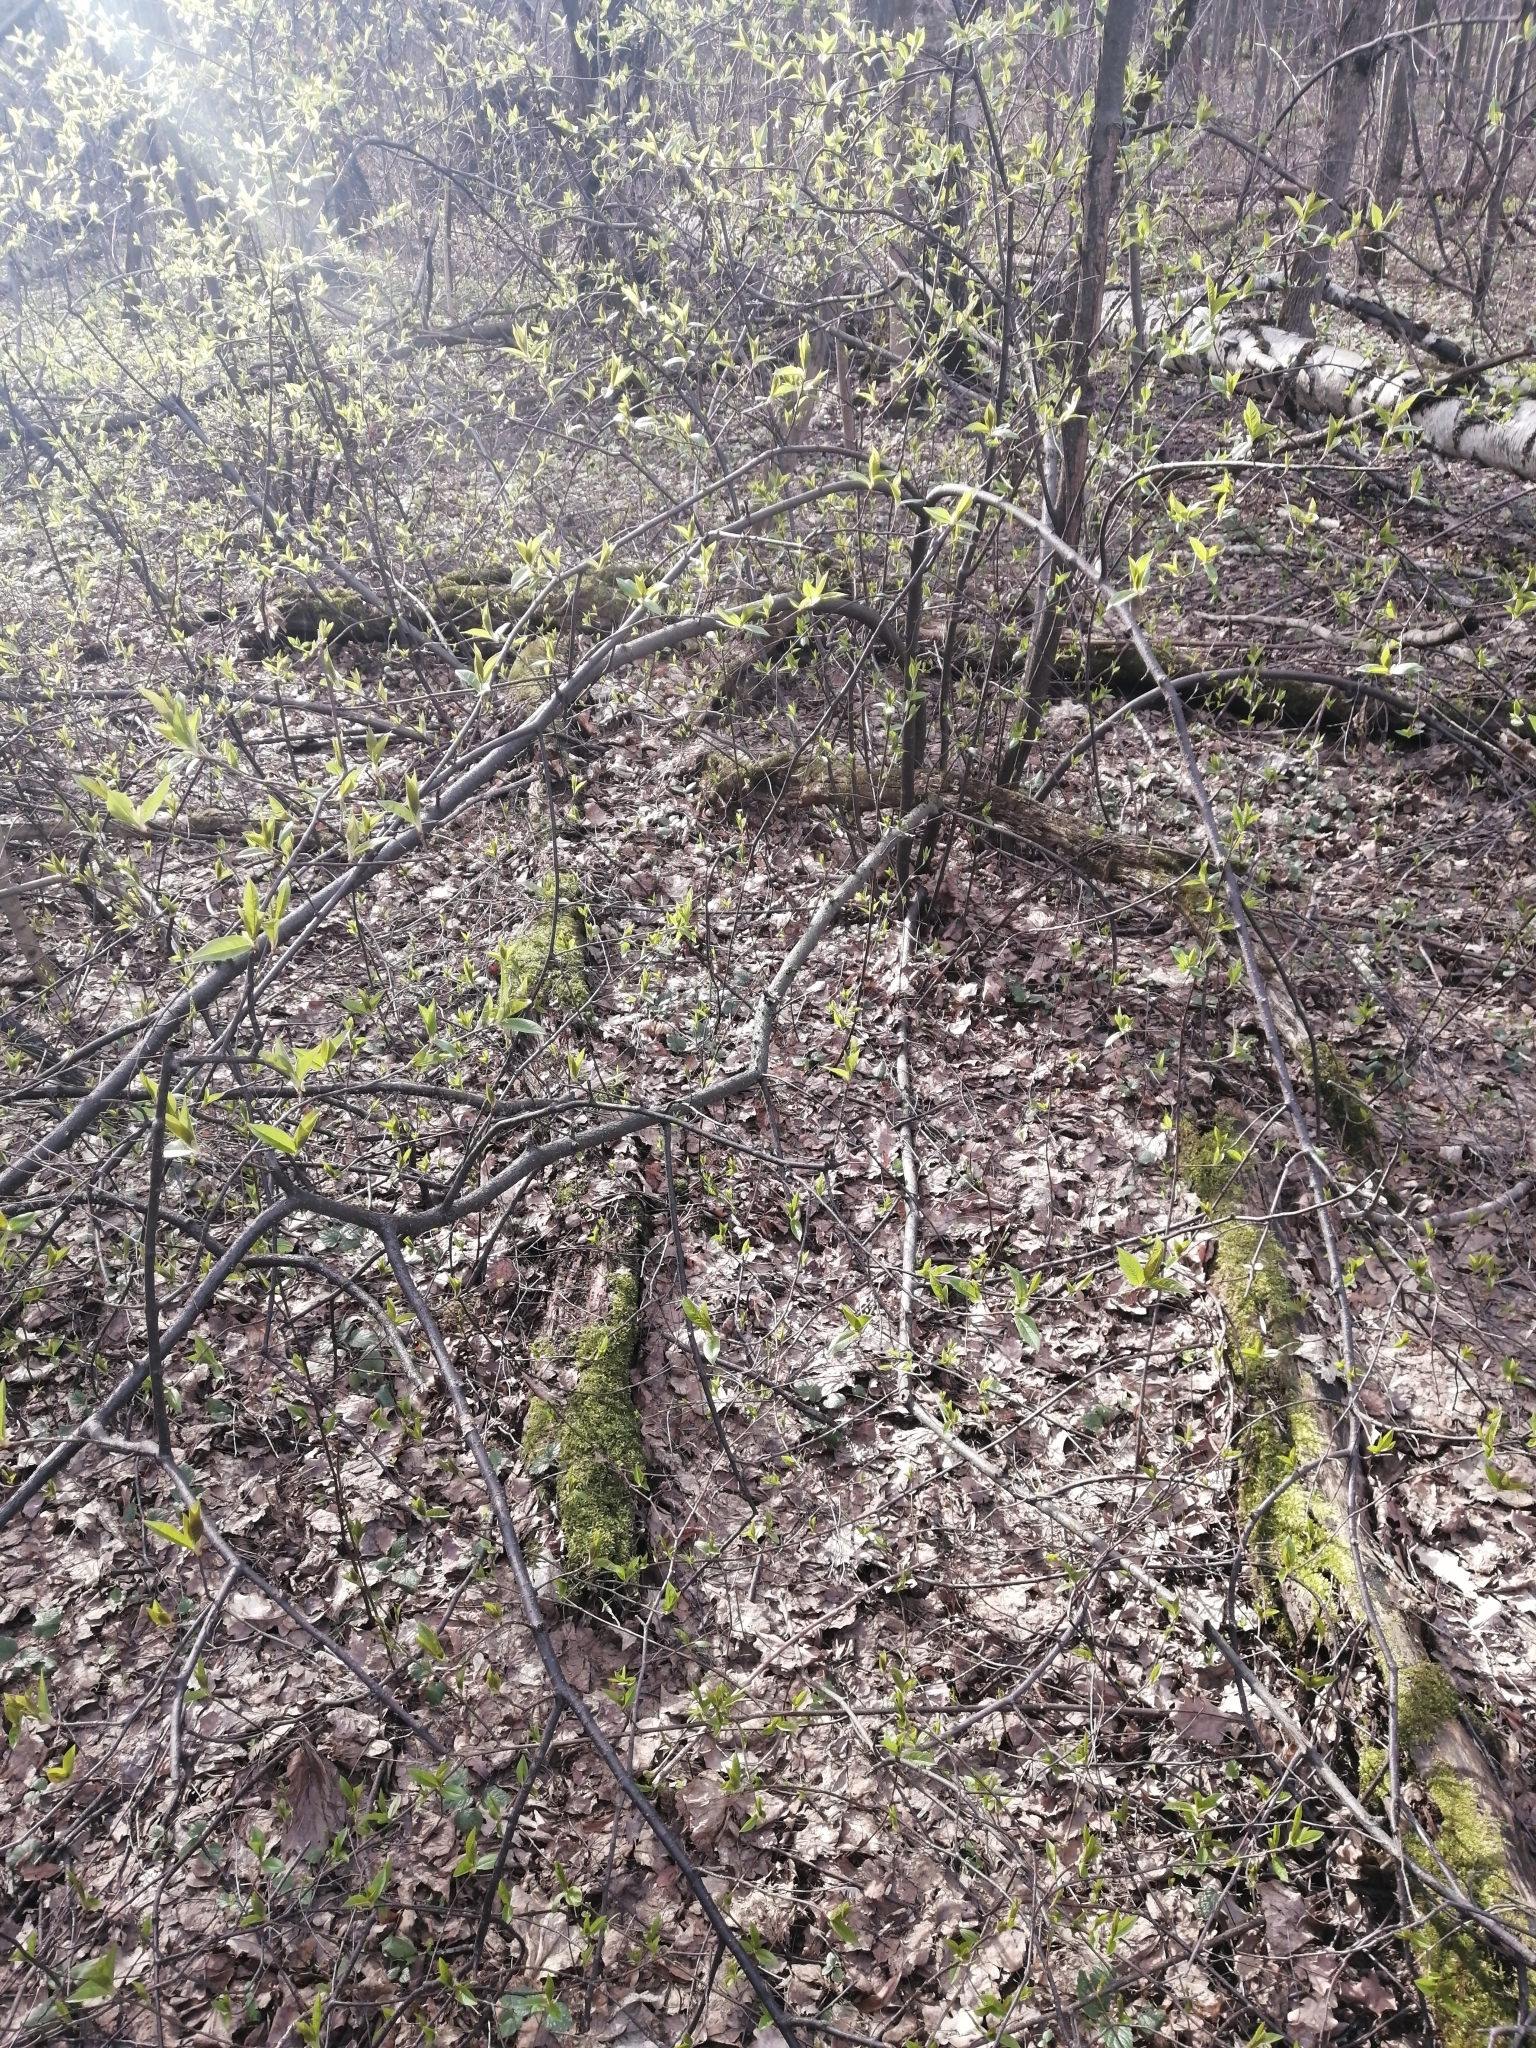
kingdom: Plantae
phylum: Tracheophyta
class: Magnoliopsida
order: Rosales
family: Rosaceae
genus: Prunus
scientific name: Prunus padus
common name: Bird cherry
